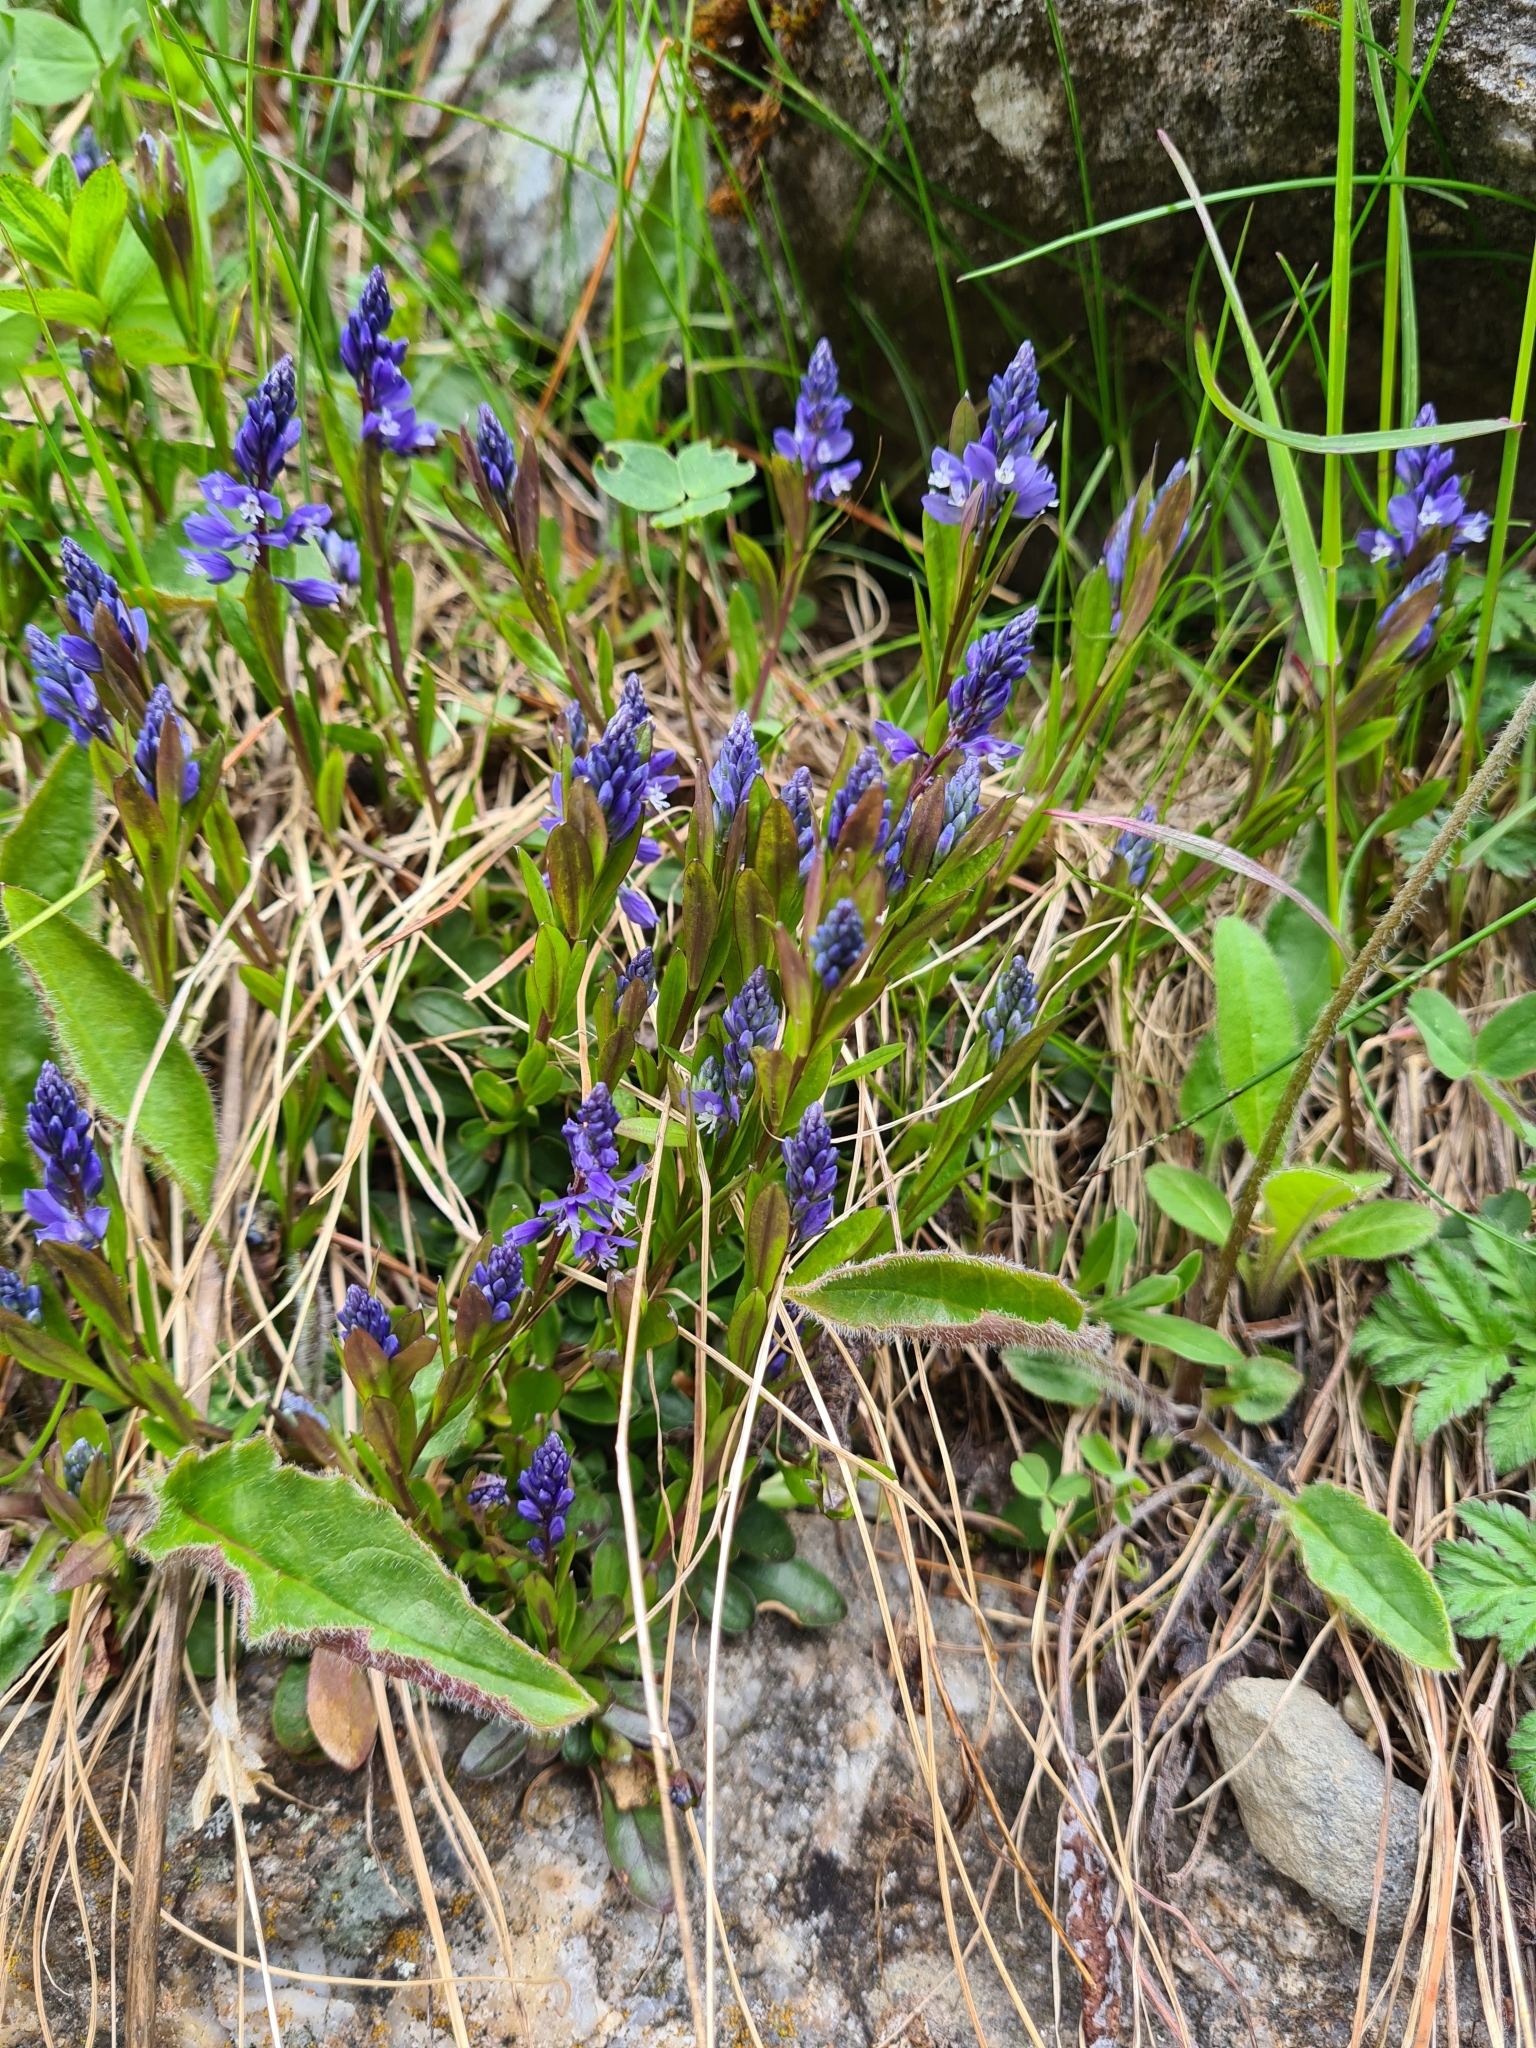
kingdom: Plantae
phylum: Tracheophyta
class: Magnoliopsida
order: Fabales
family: Polygalaceae
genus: Polygala
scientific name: Polygala amarella
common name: Dwarf milkwort
